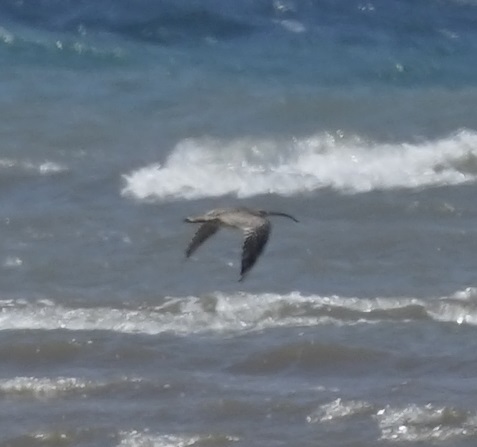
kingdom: Animalia
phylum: Chordata
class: Aves
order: Charadriiformes
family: Scolopacidae
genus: Numenius
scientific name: Numenius madagascariensis
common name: Far eastern curlew
